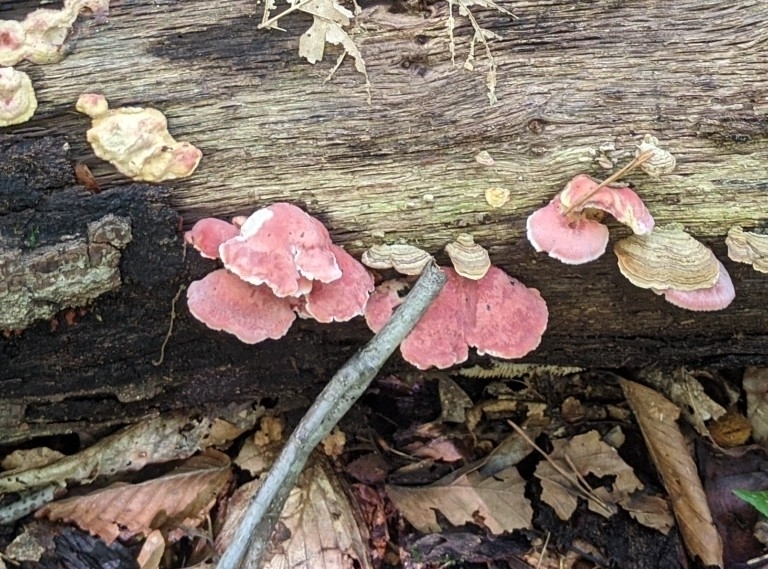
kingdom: Fungi
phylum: Basidiomycota
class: Agaricomycetes
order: Polyporales
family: Irpicaceae
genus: Byssomerulius
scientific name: Byssomerulius incarnatus
